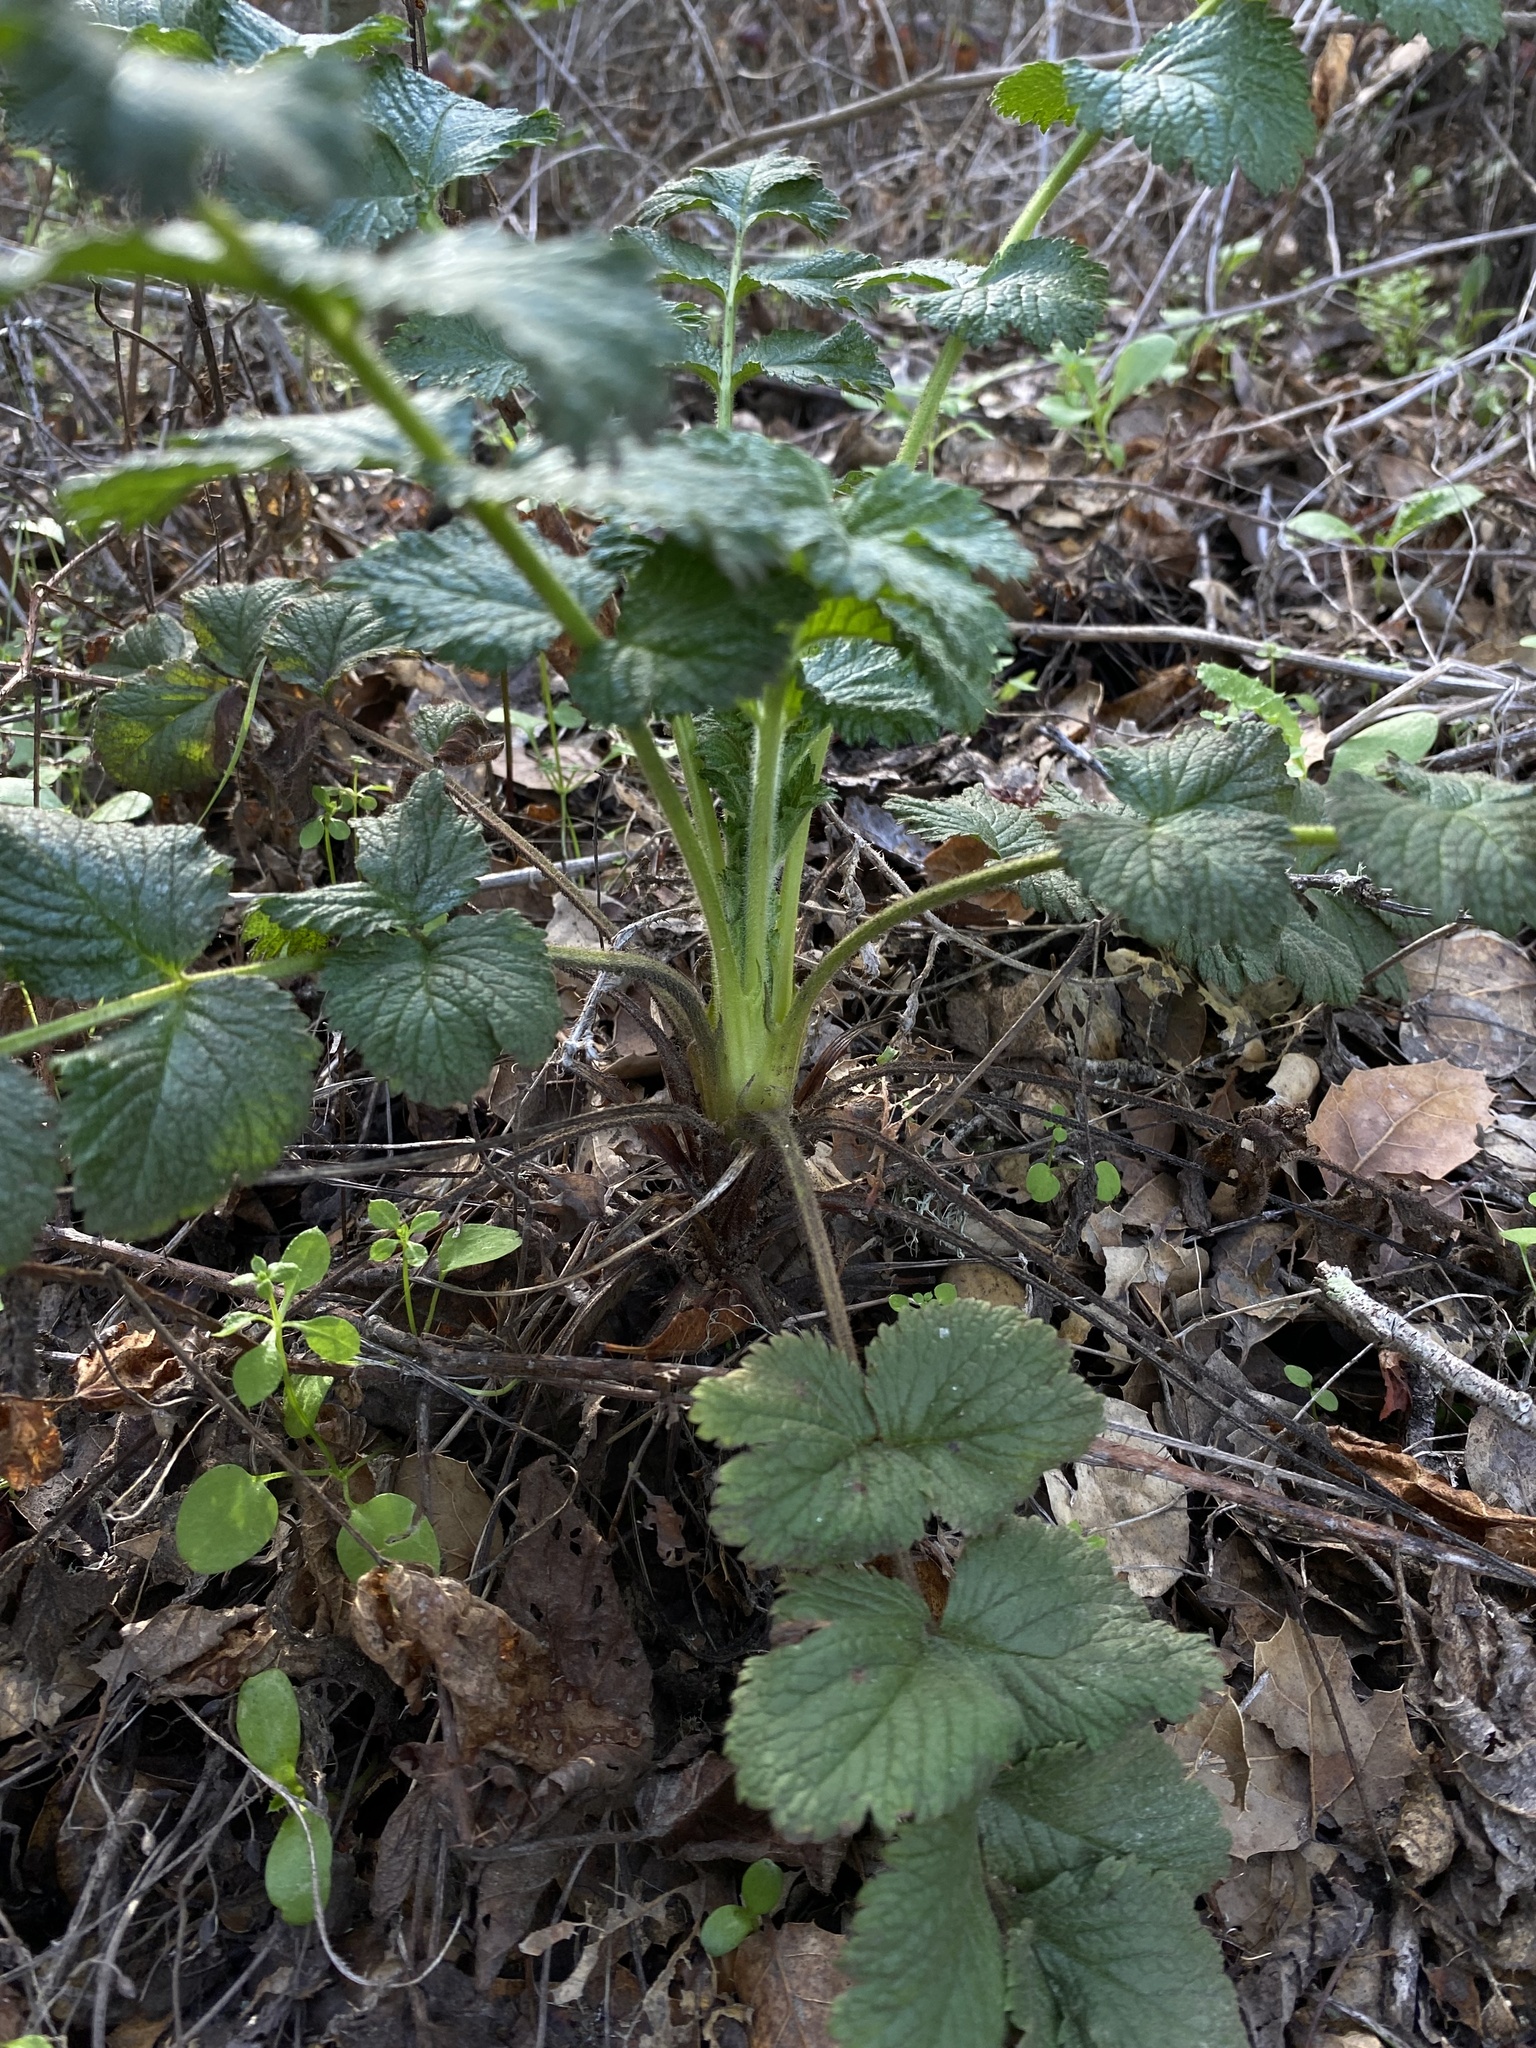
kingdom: Plantae
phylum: Tracheophyta
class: Magnoliopsida
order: Rosales
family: Rosaceae
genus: Drymocallis
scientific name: Drymocallis glandulosa
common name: Sticky cinquefoil
